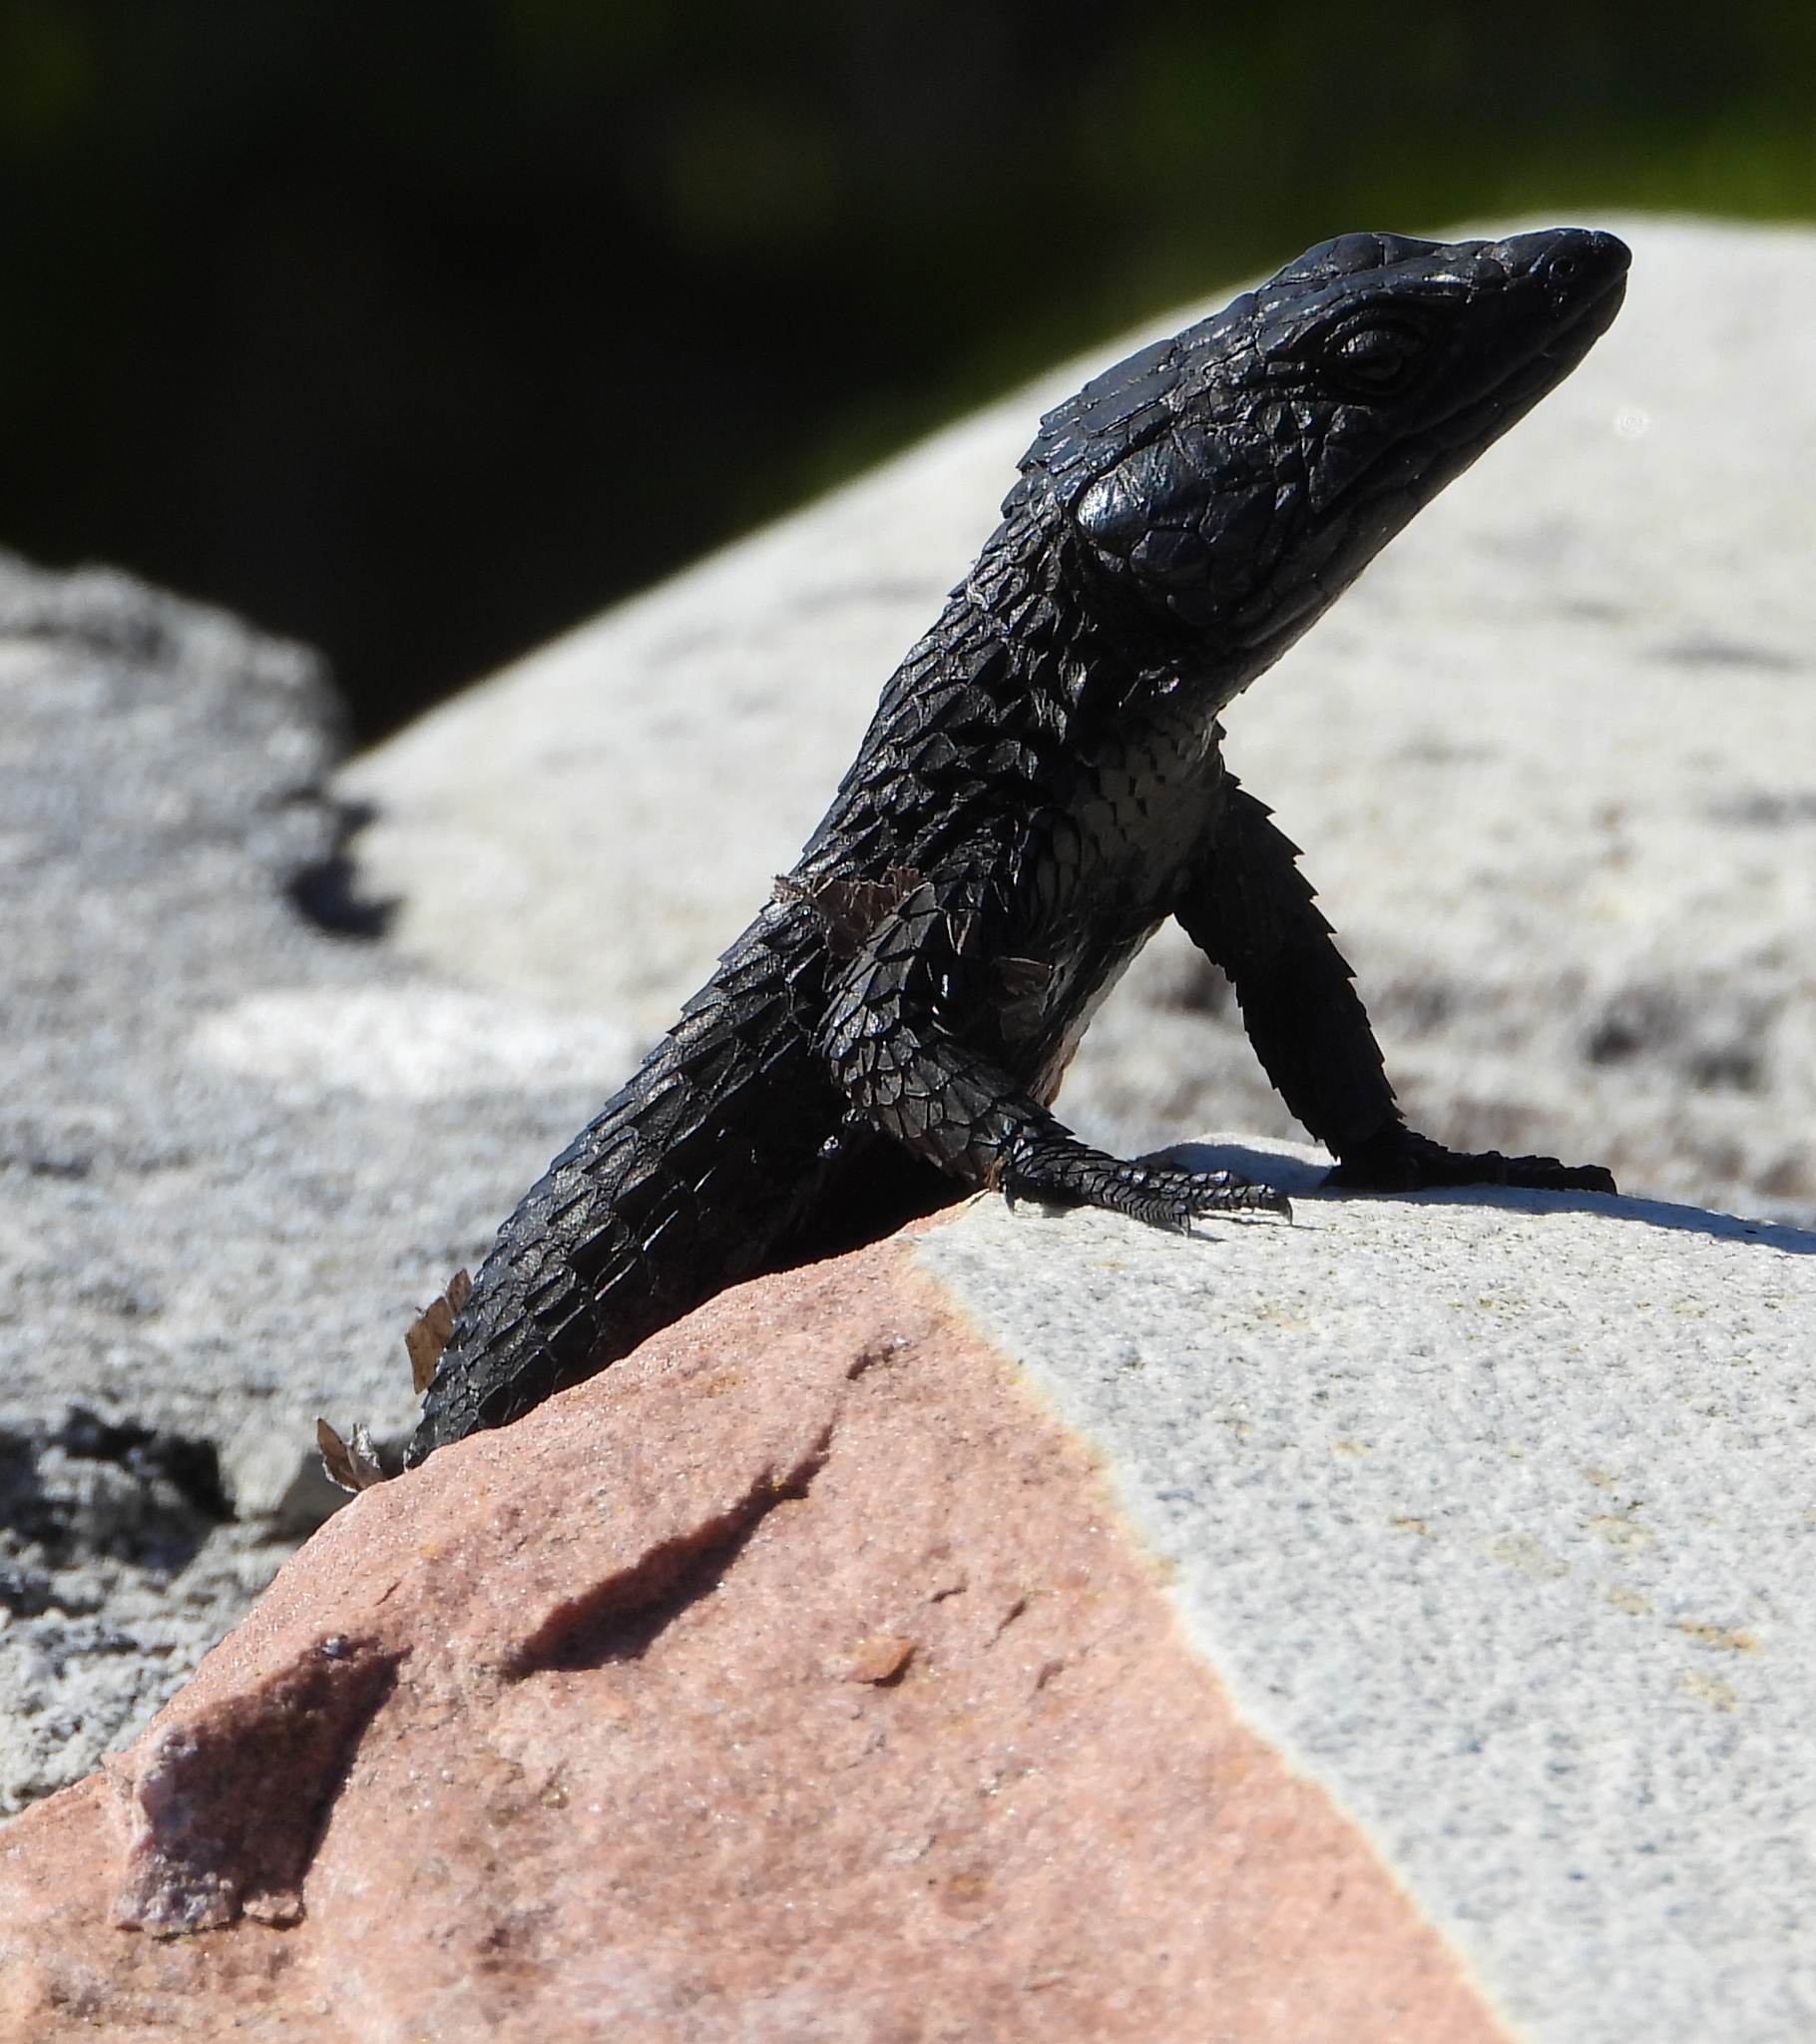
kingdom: Animalia
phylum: Chordata
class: Squamata
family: Cordylidae
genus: Cordylus
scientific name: Cordylus niger
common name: Black girdled lizard
